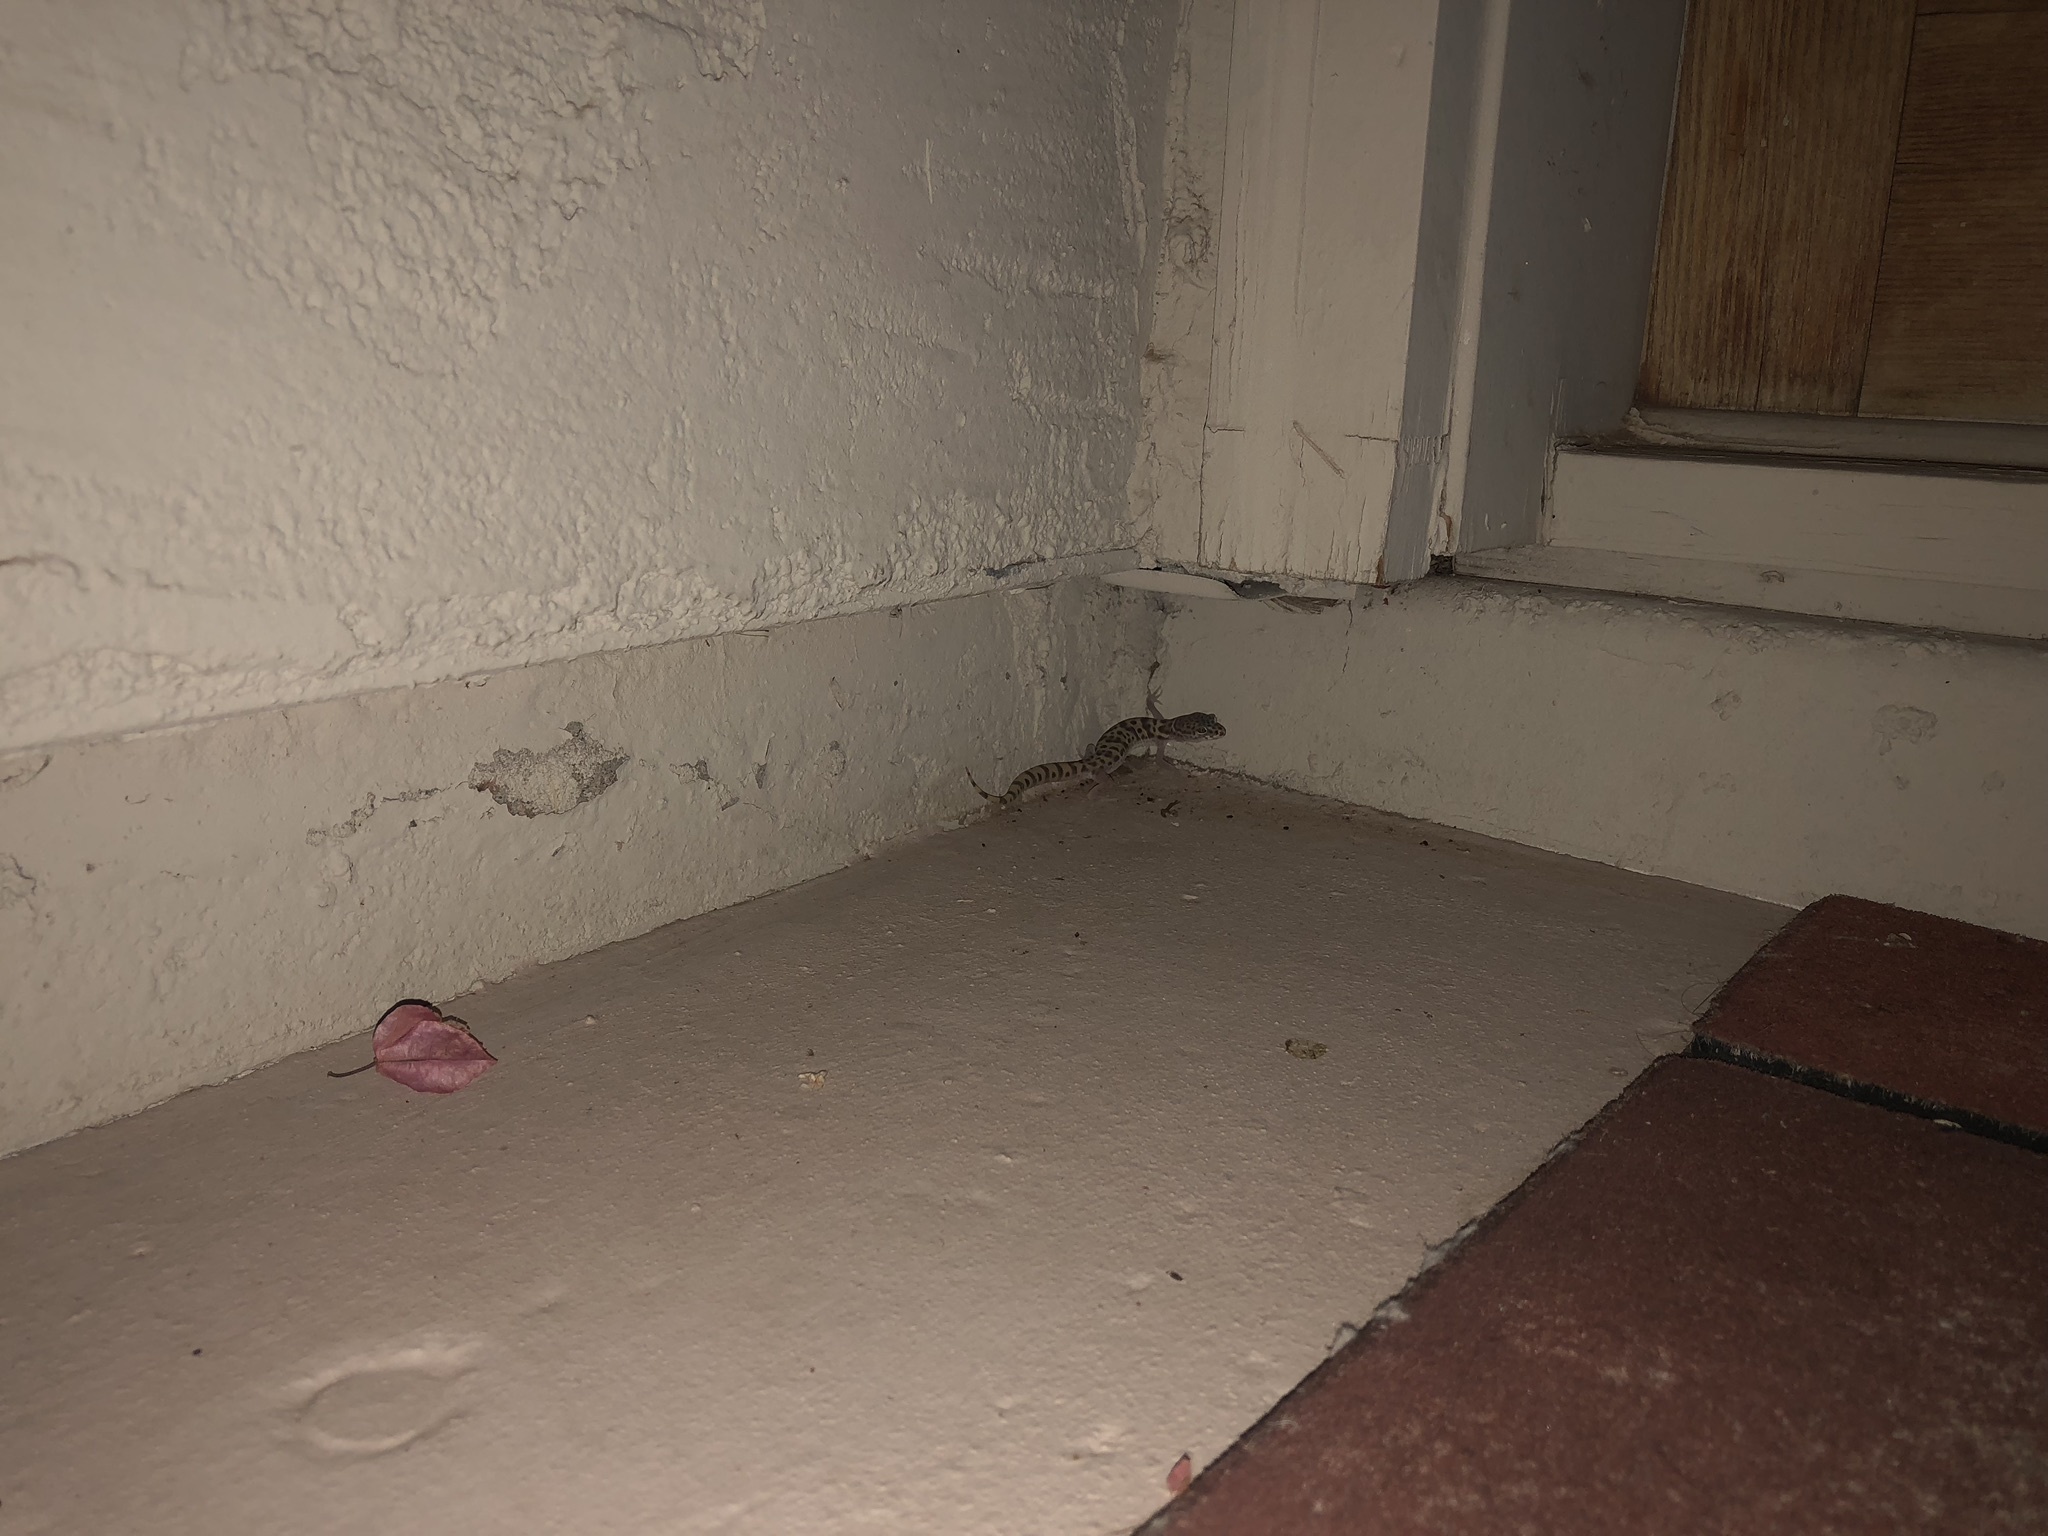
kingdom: Animalia
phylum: Chordata
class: Squamata
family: Eublepharidae
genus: Coleonyx
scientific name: Coleonyx variegatus
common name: Western banded gecko
